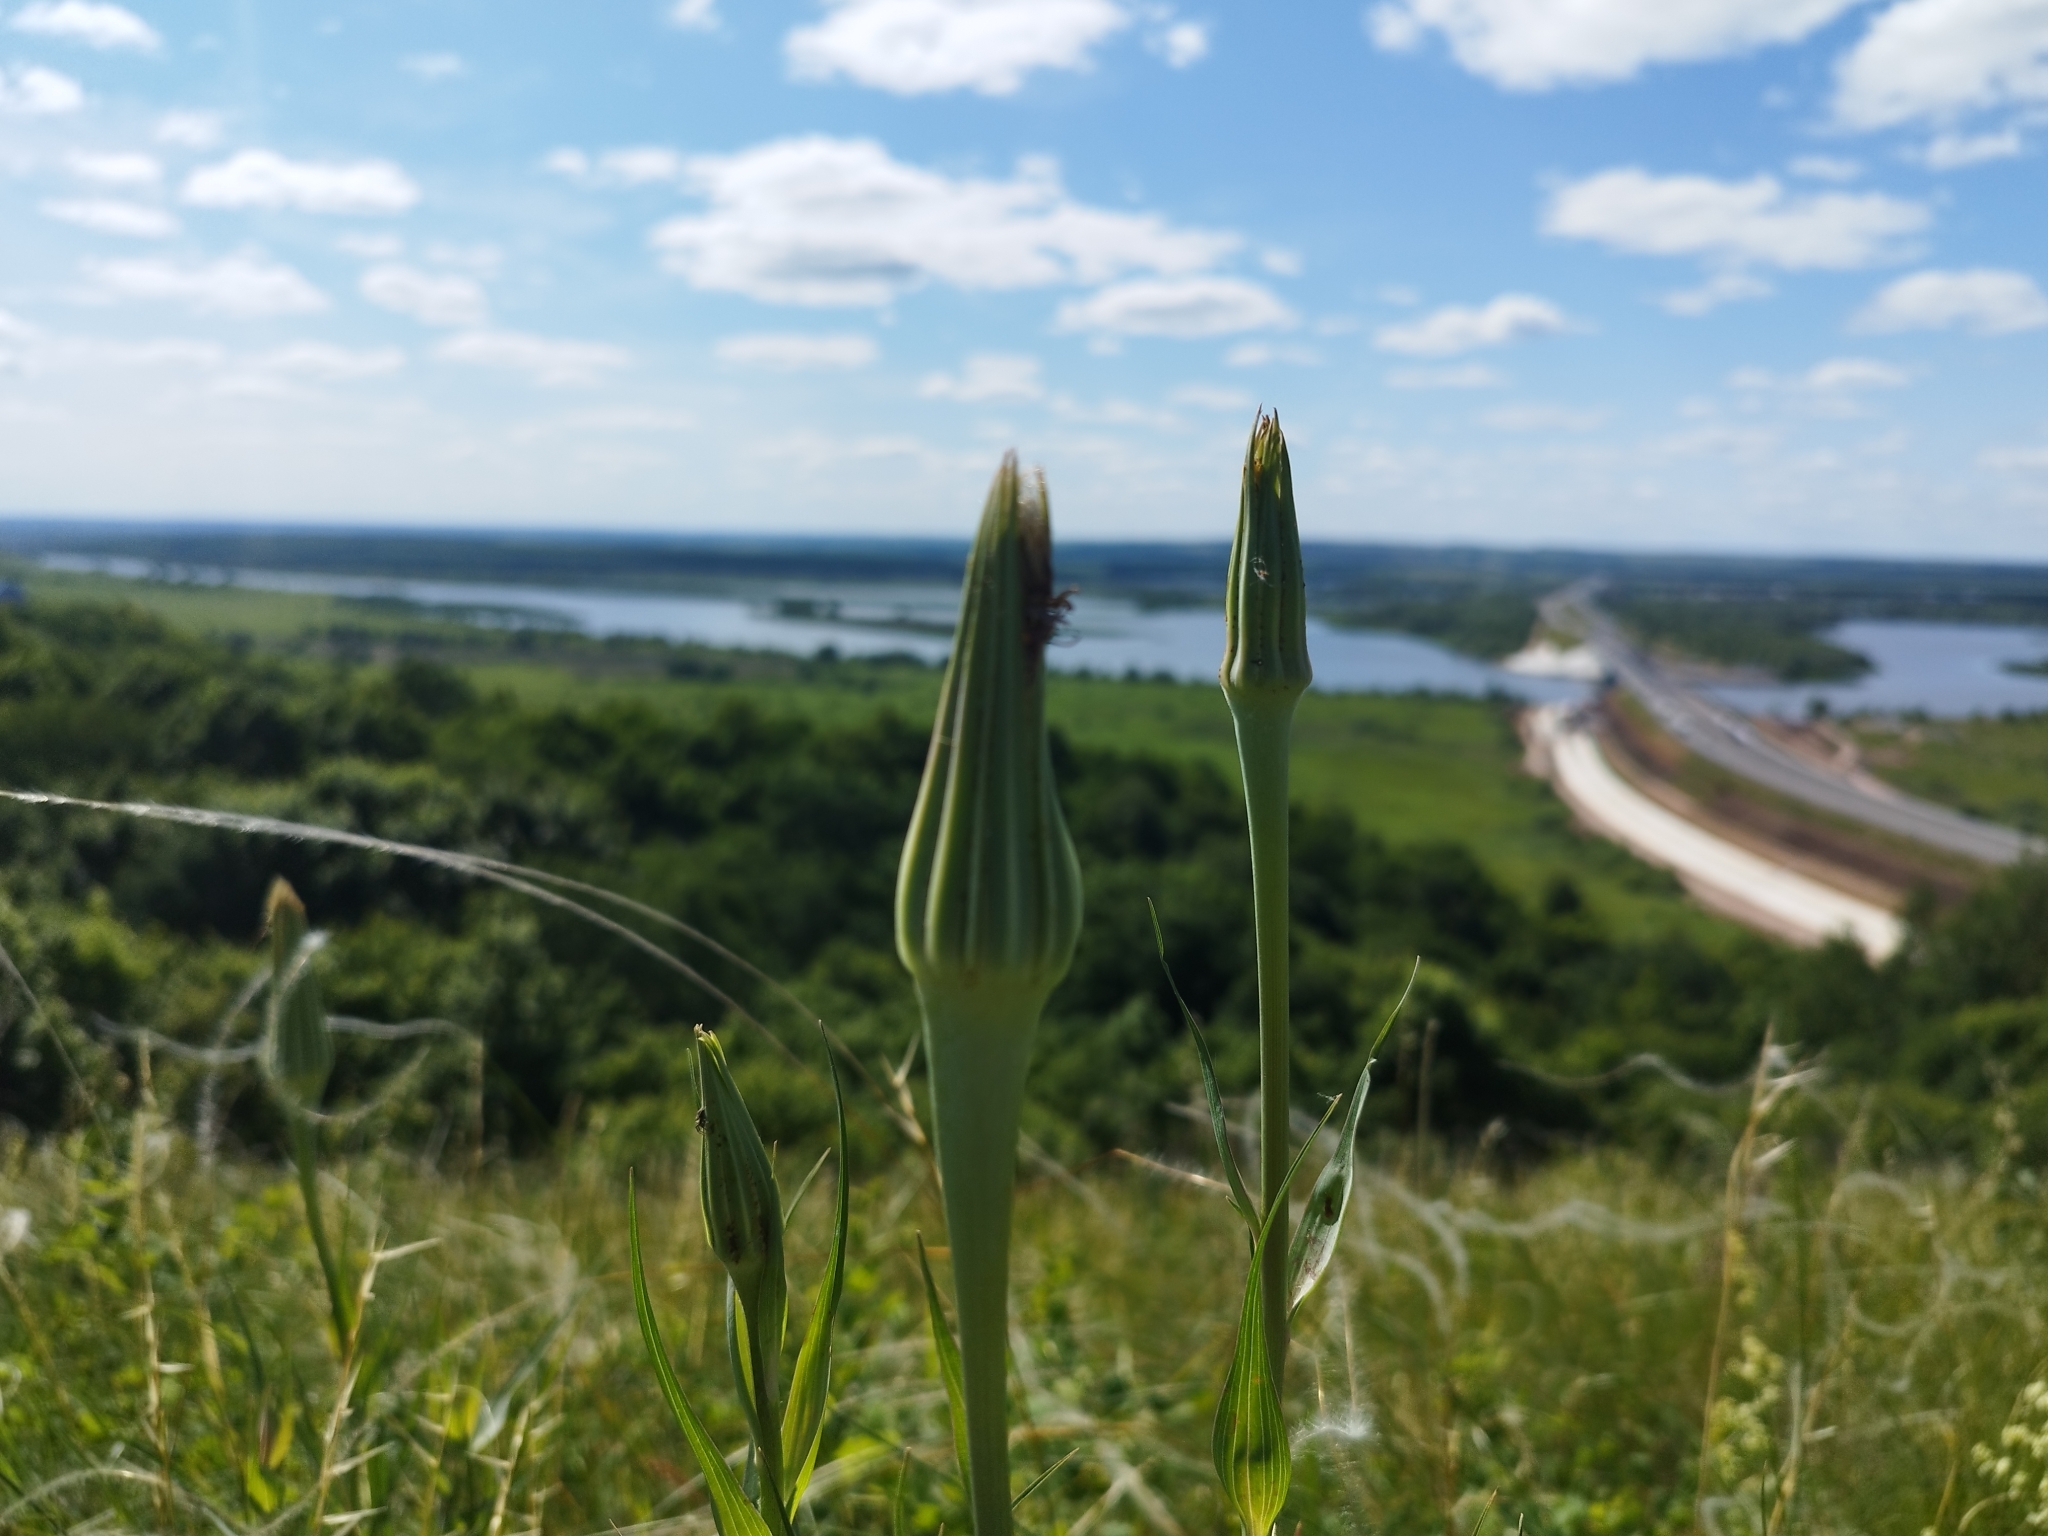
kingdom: Plantae
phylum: Tracheophyta
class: Magnoliopsida
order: Asterales
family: Asteraceae
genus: Tragopogon
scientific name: Tragopogon dubius
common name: Yellow salsify
